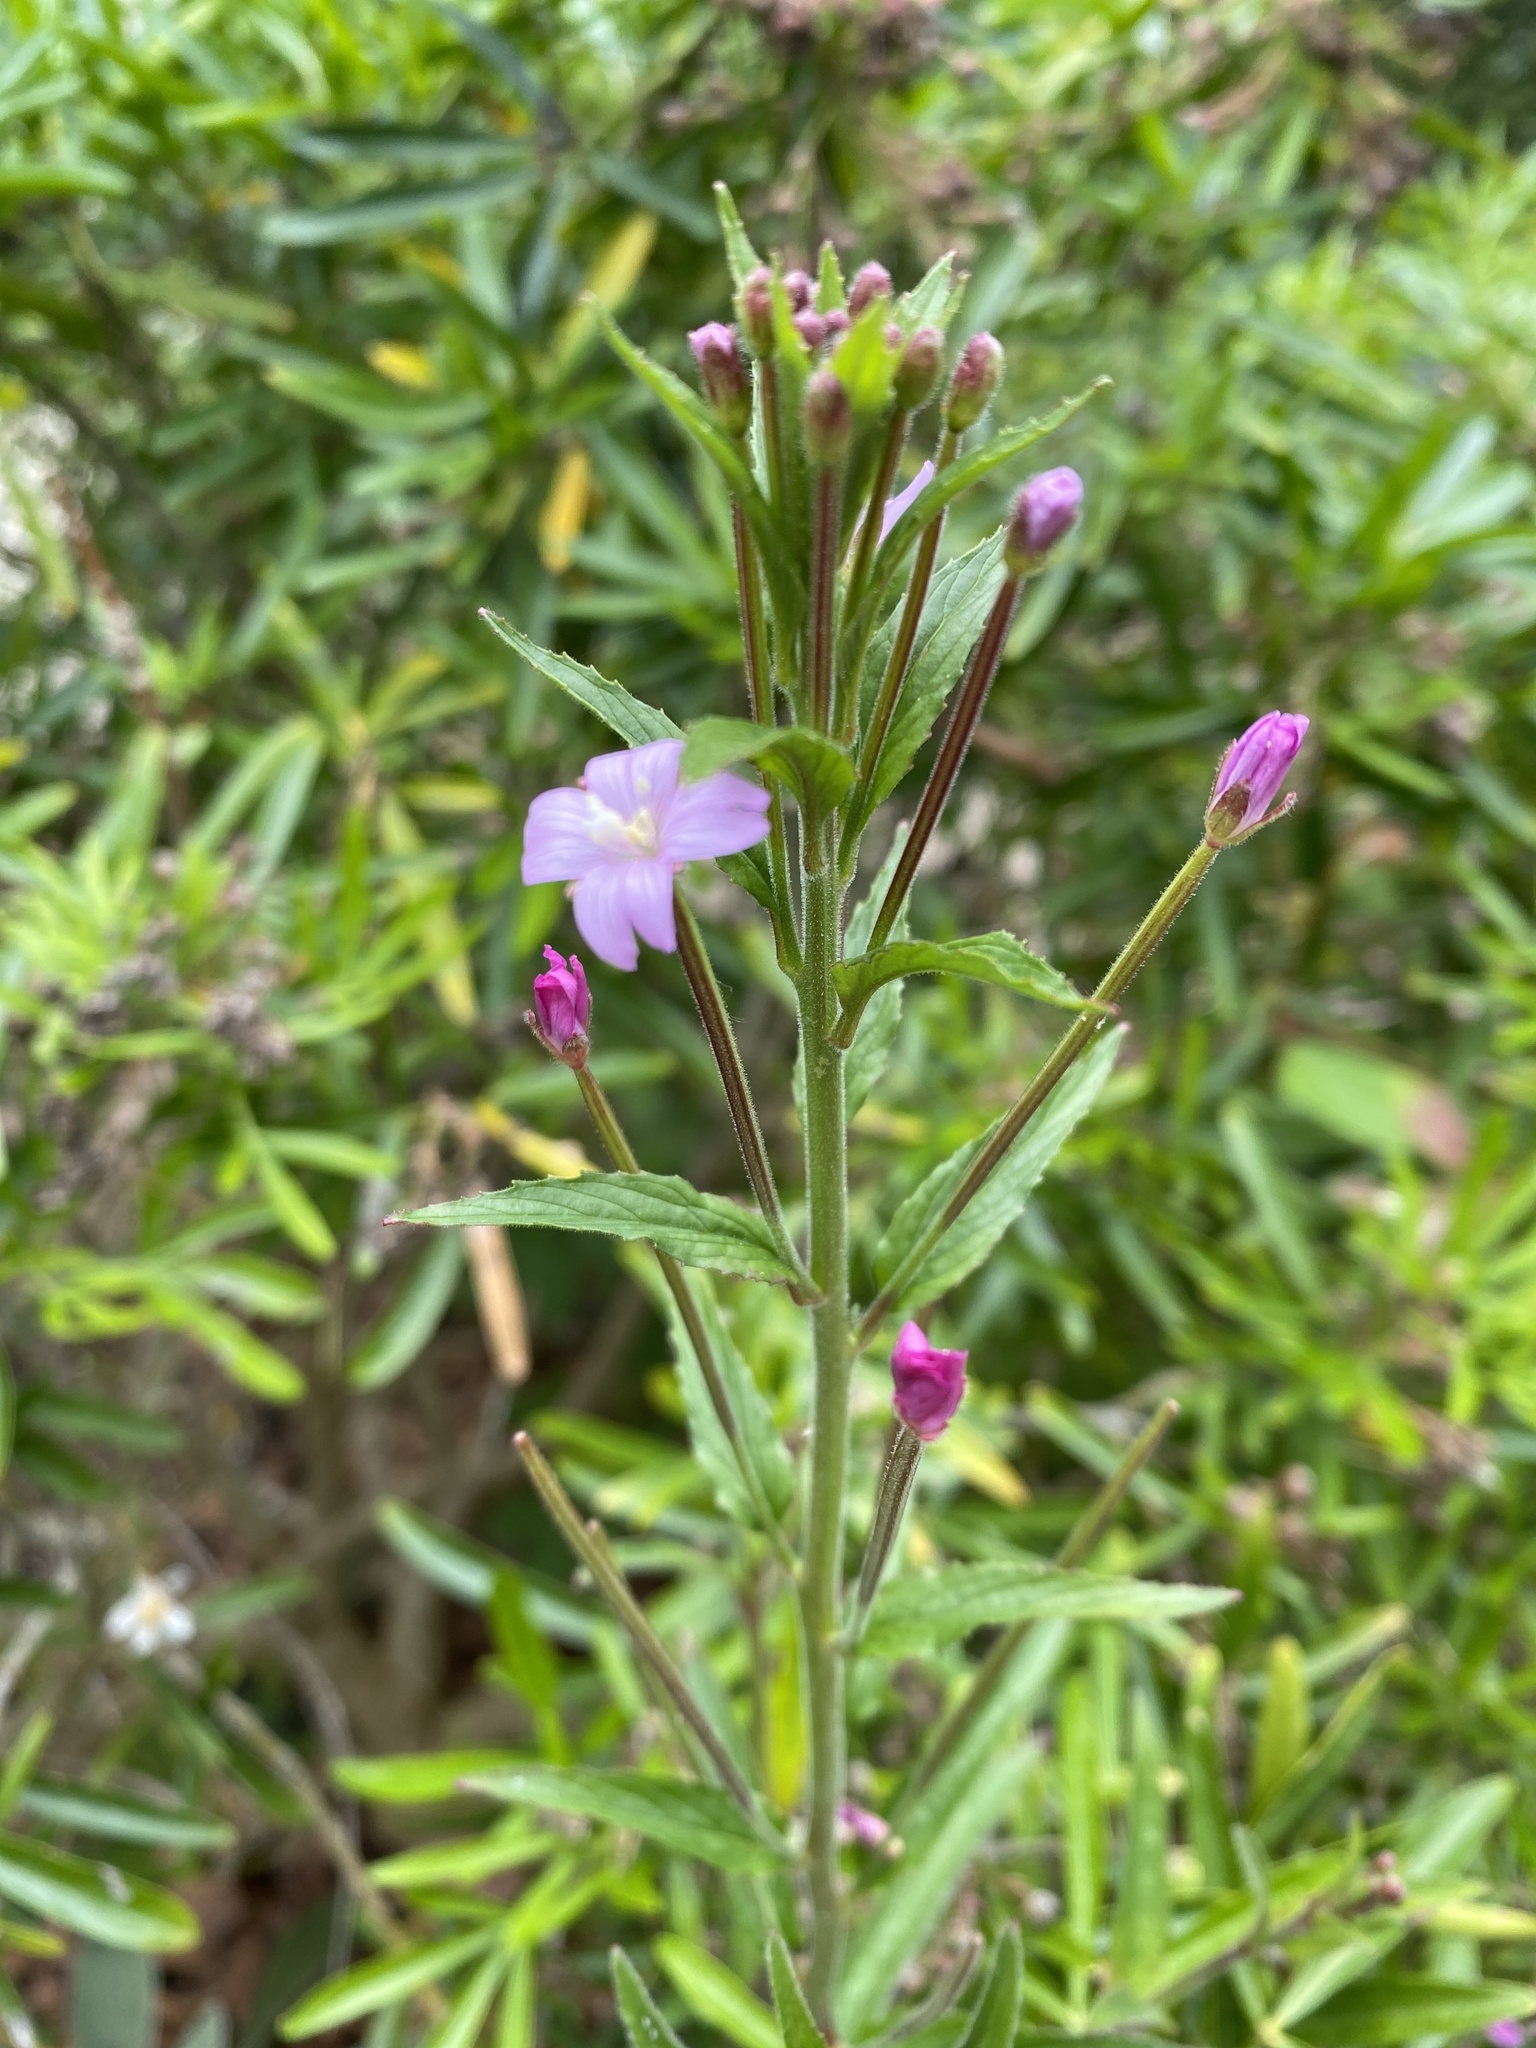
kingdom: Plantae
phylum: Tracheophyta
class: Magnoliopsida
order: Myrtales
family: Onagraceae
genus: Epilobium
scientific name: Epilobium parviflorum
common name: Hoary willowherb
